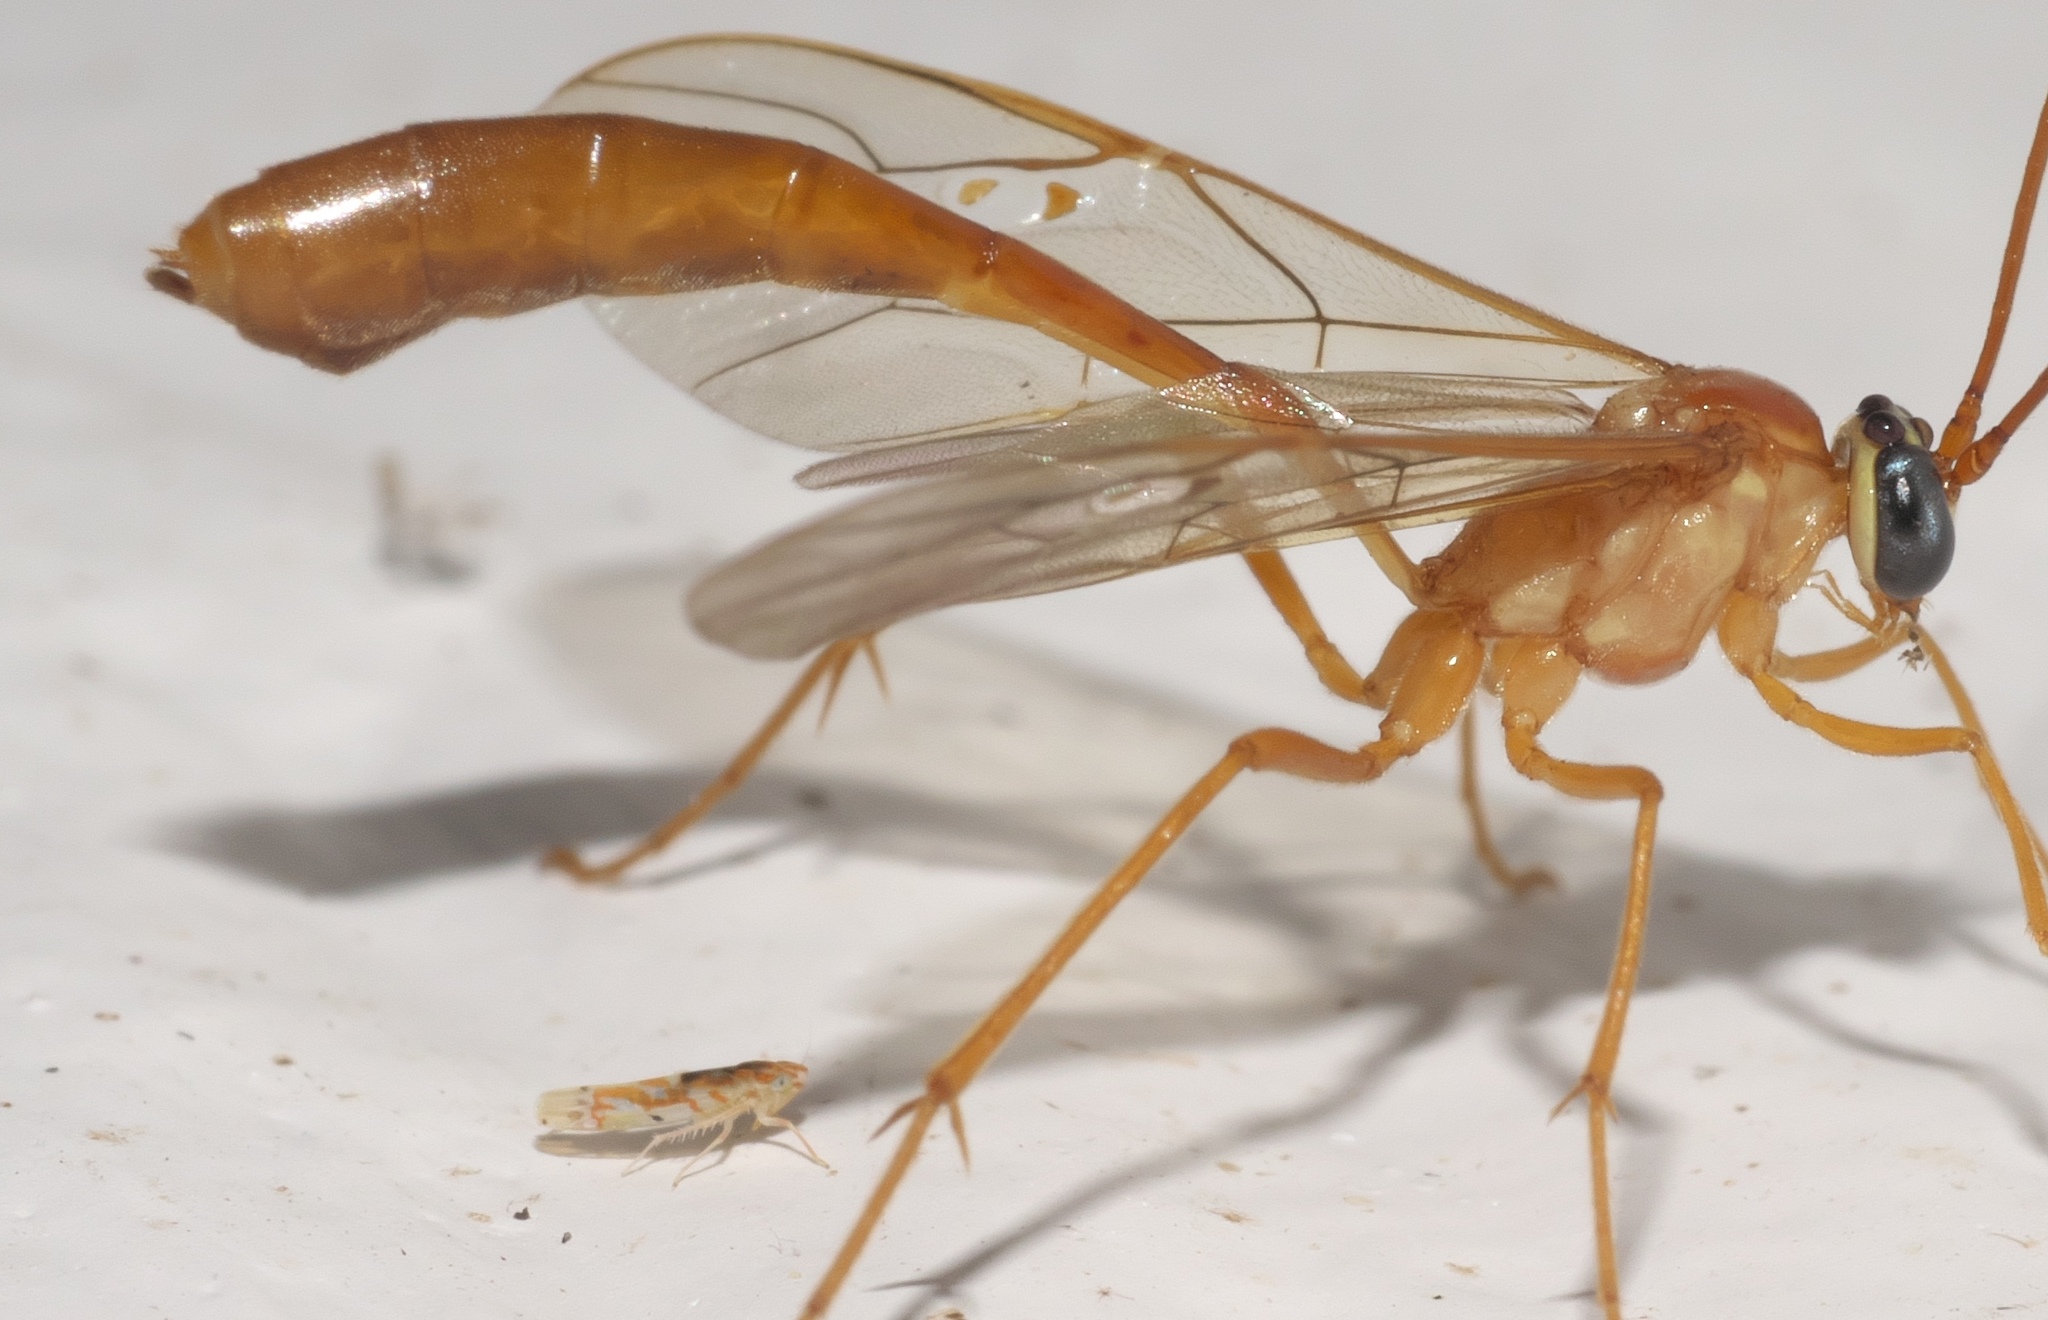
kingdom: Animalia
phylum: Arthropoda
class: Insecta
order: Hemiptera
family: Cicadellidae
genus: Erythroneura
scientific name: Erythroneura octonotata
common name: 8-spotted leafhopper
